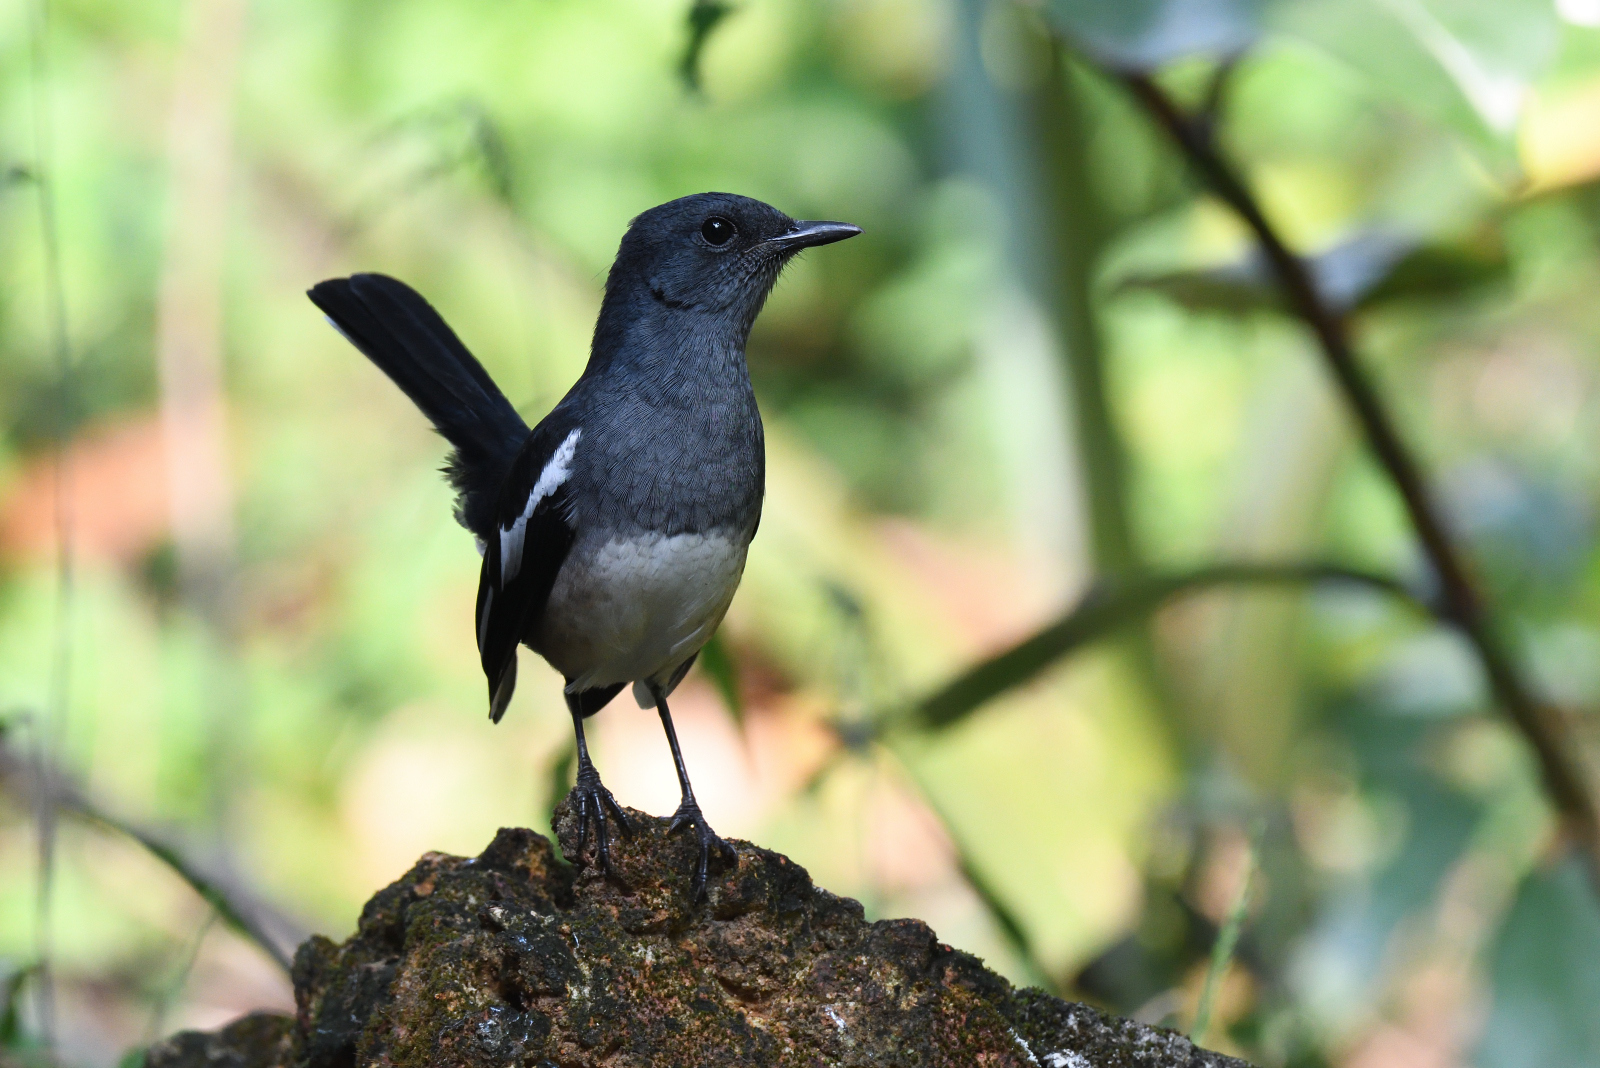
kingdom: Animalia
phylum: Chordata
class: Aves
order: Passeriformes
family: Muscicapidae
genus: Copsychus
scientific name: Copsychus saularis
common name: Oriental magpie-robin
